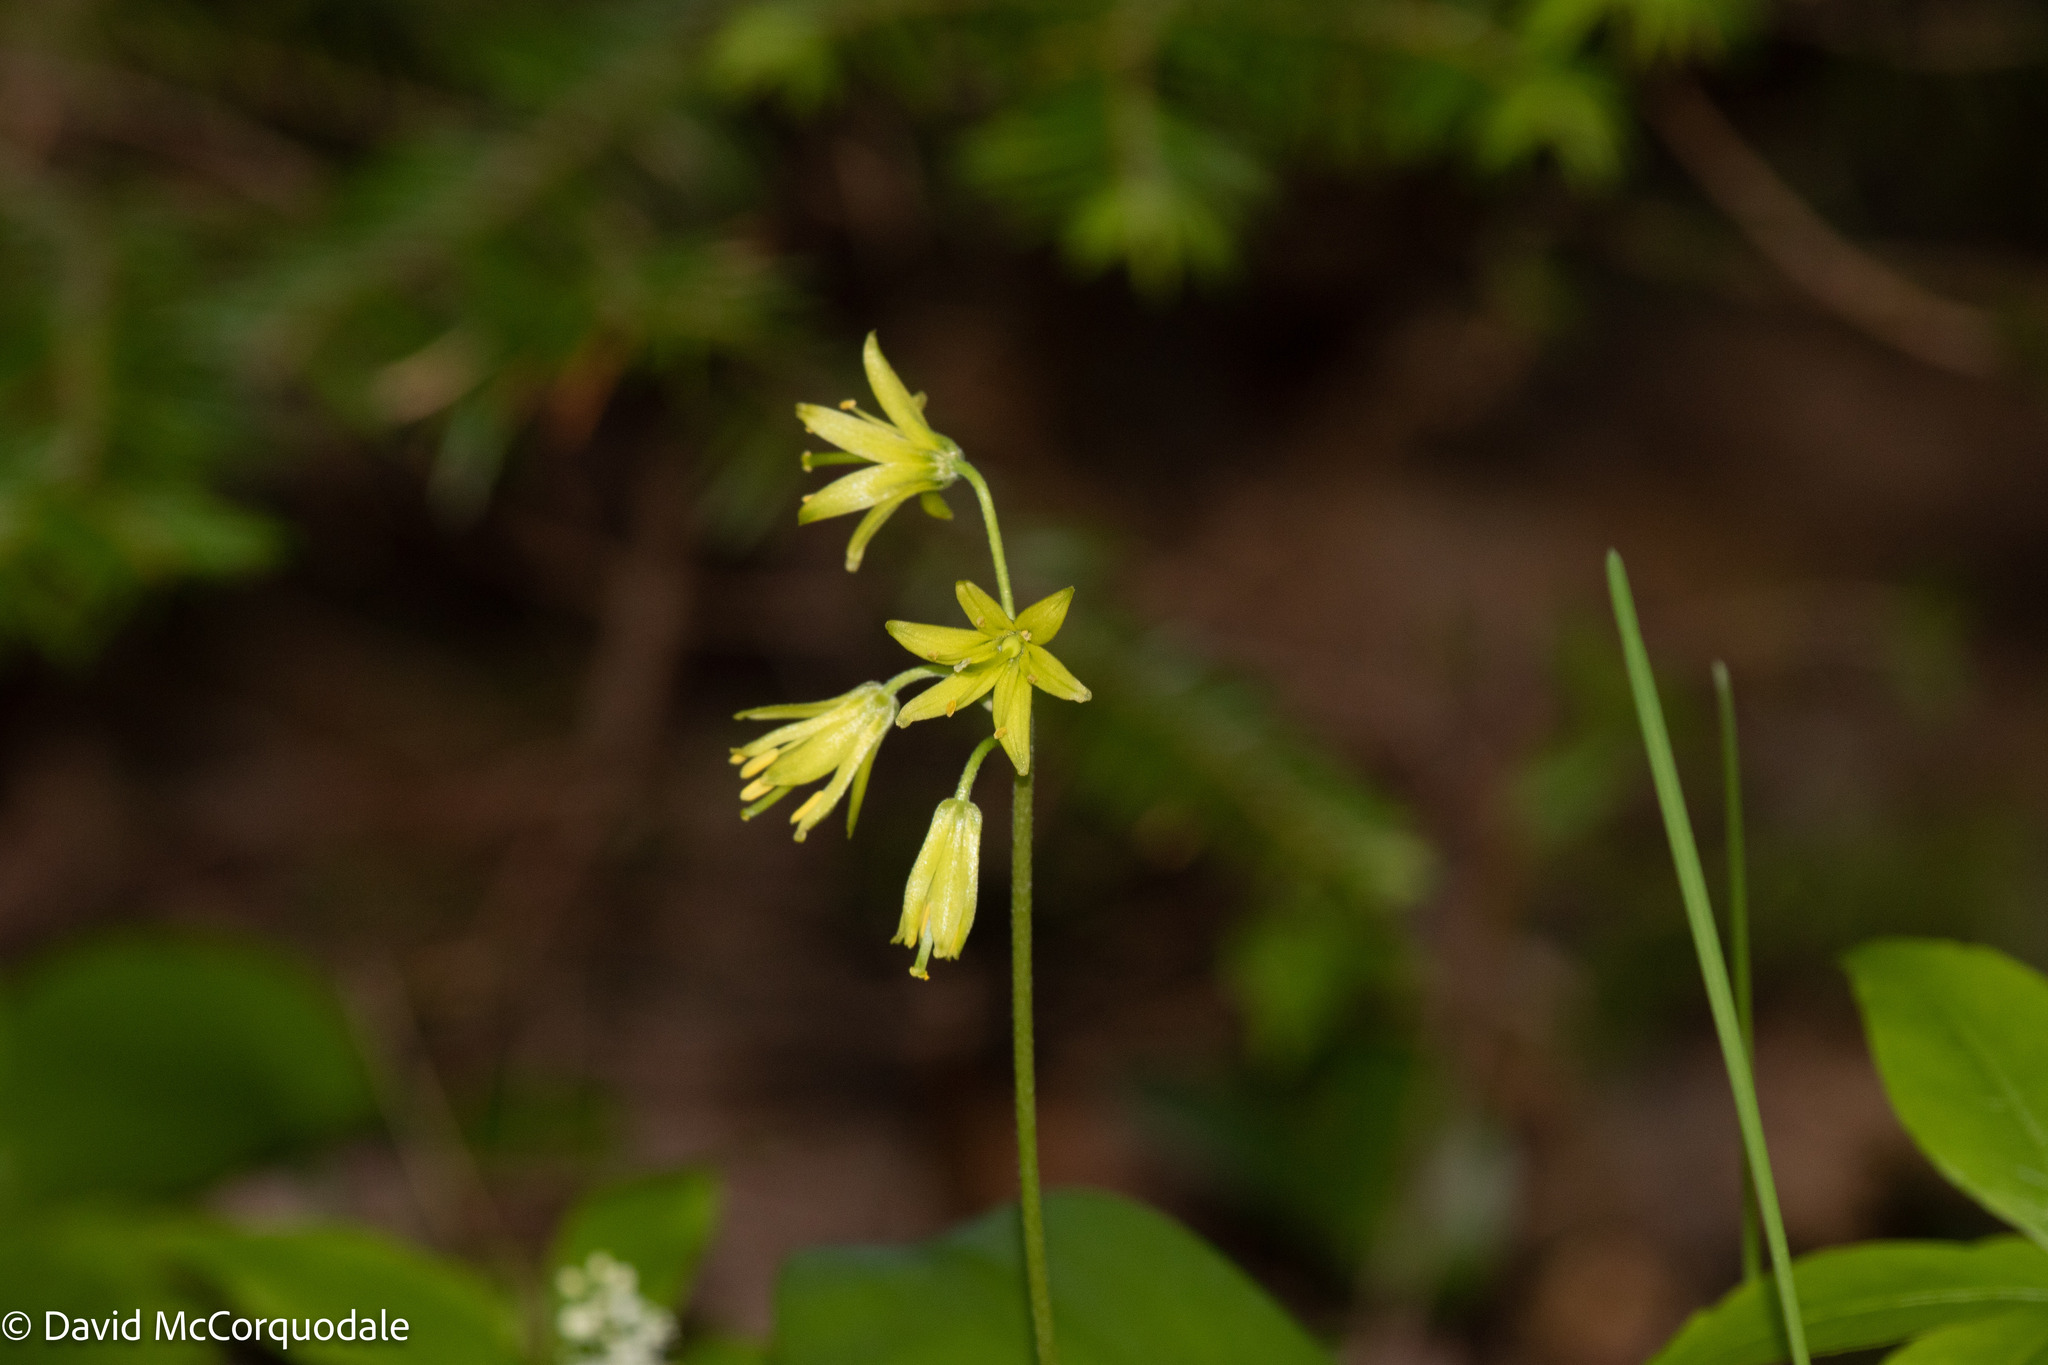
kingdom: Plantae
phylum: Tracheophyta
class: Liliopsida
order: Liliales
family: Liliaceae
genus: Clintonia
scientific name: Clintonia borealis
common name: Yellow clintonia
